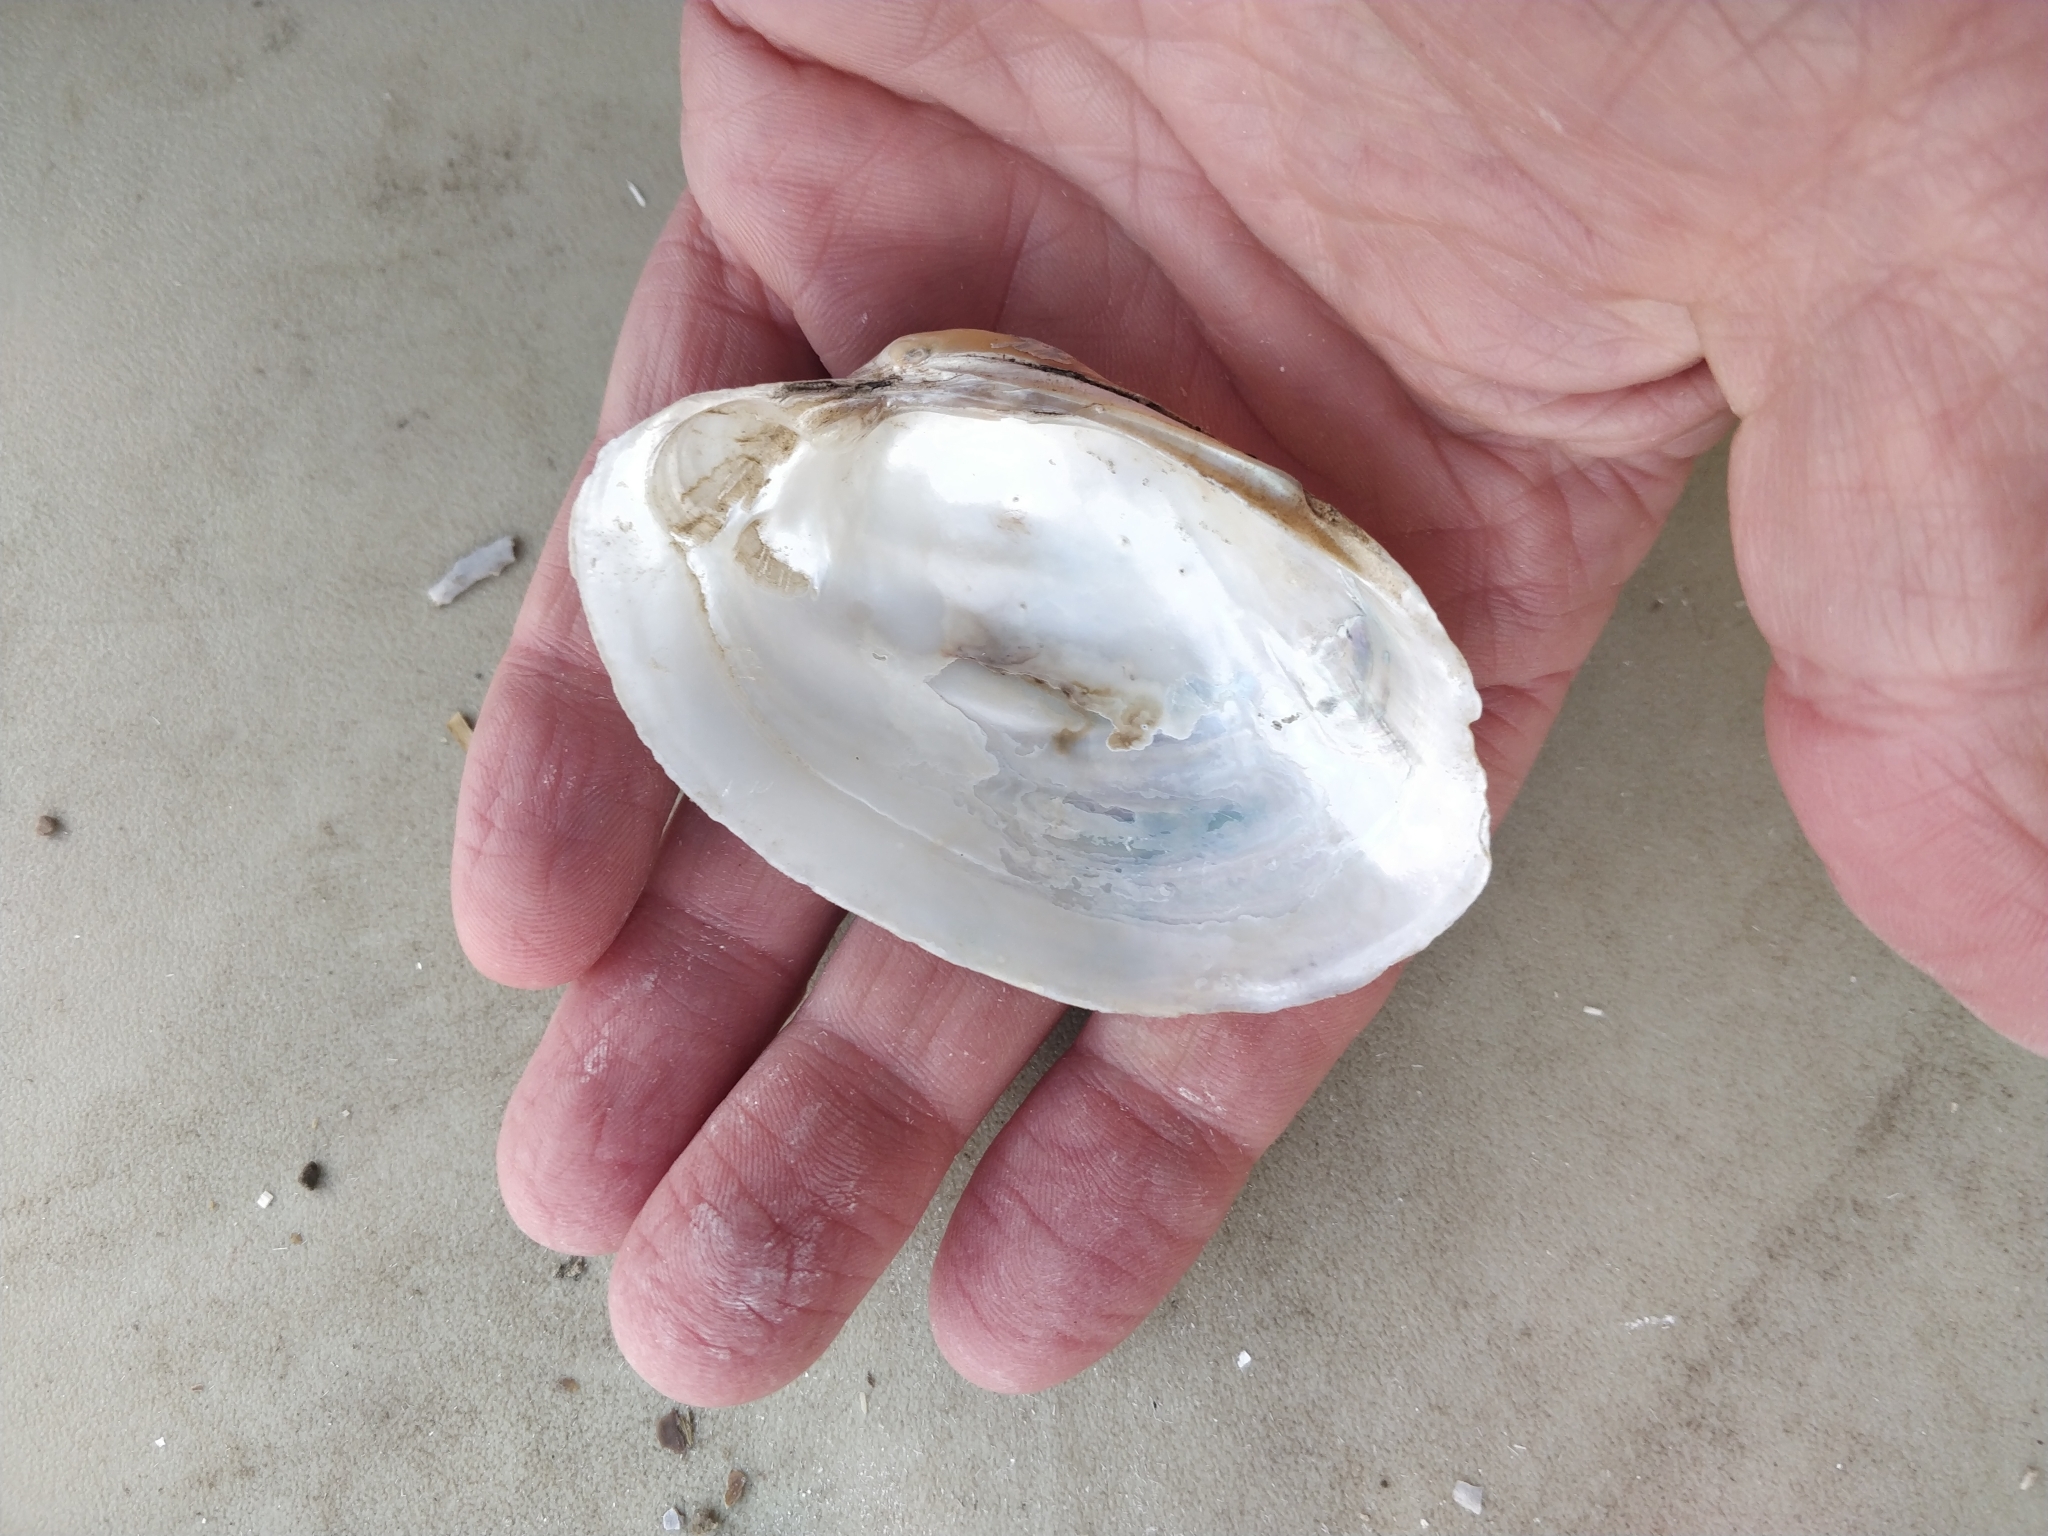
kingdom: Animalia
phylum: Mollusca
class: Bivalvia
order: Unionida
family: Unionidae
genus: Lampsilis
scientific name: Lampsilis cardium
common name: Plain pocketbook
